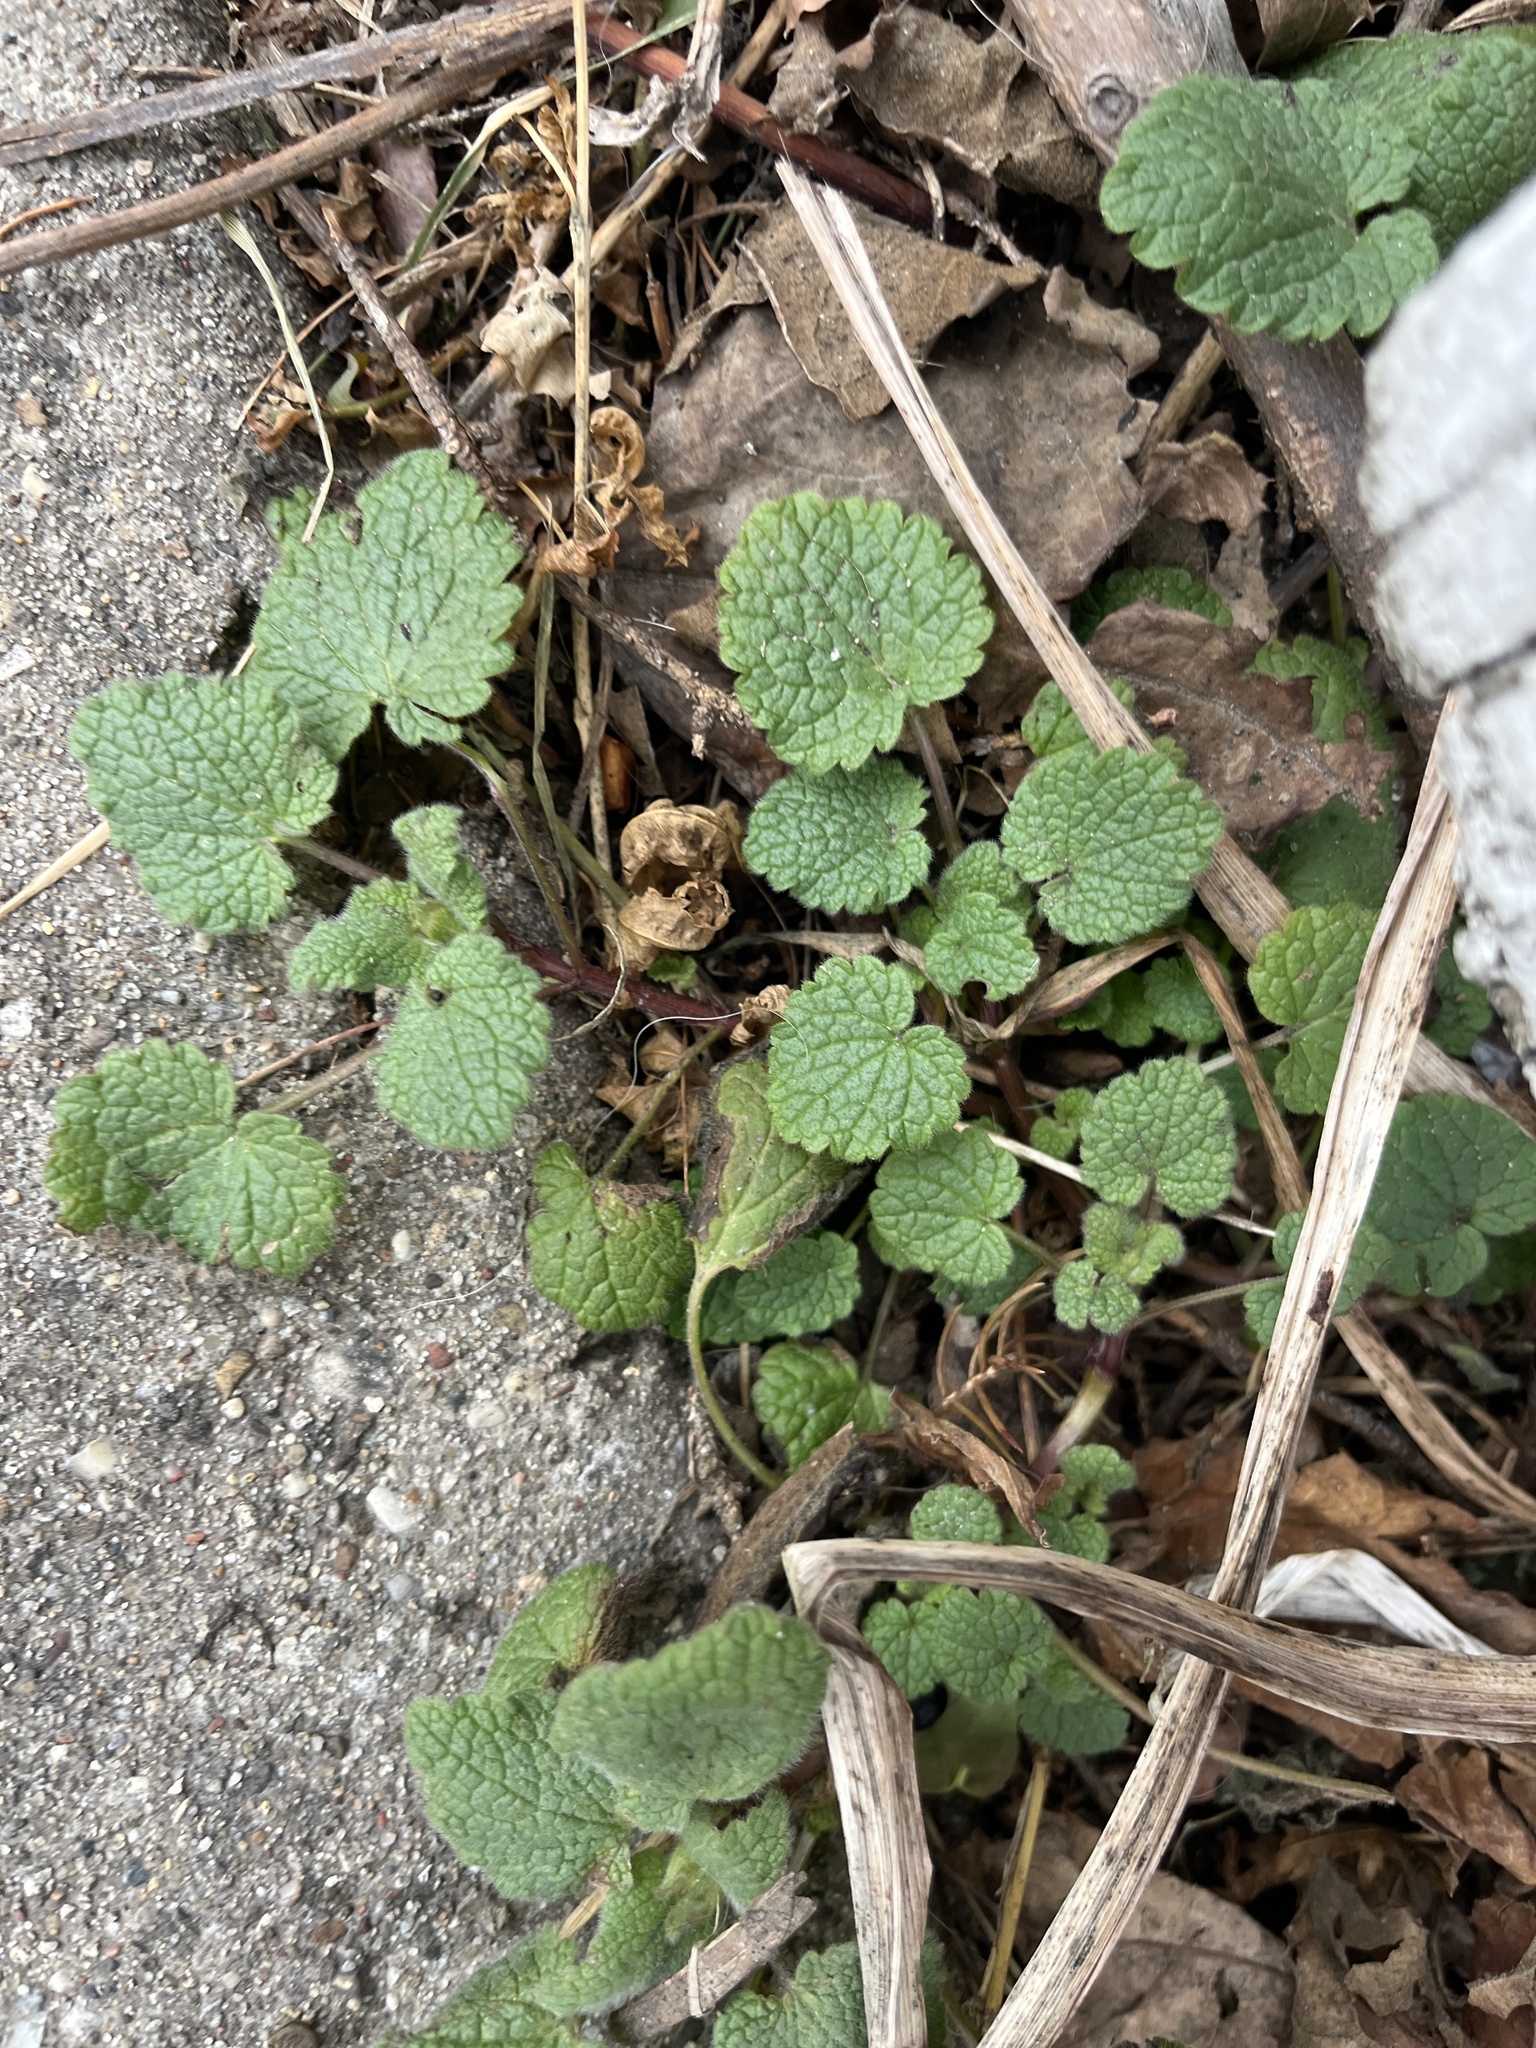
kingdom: Plantae
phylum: Tracheophyta
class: Magnoliopsida
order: Lamiales
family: Lamiaceae
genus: Lamium
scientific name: Lamium purpureum
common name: Red dead-nettle
